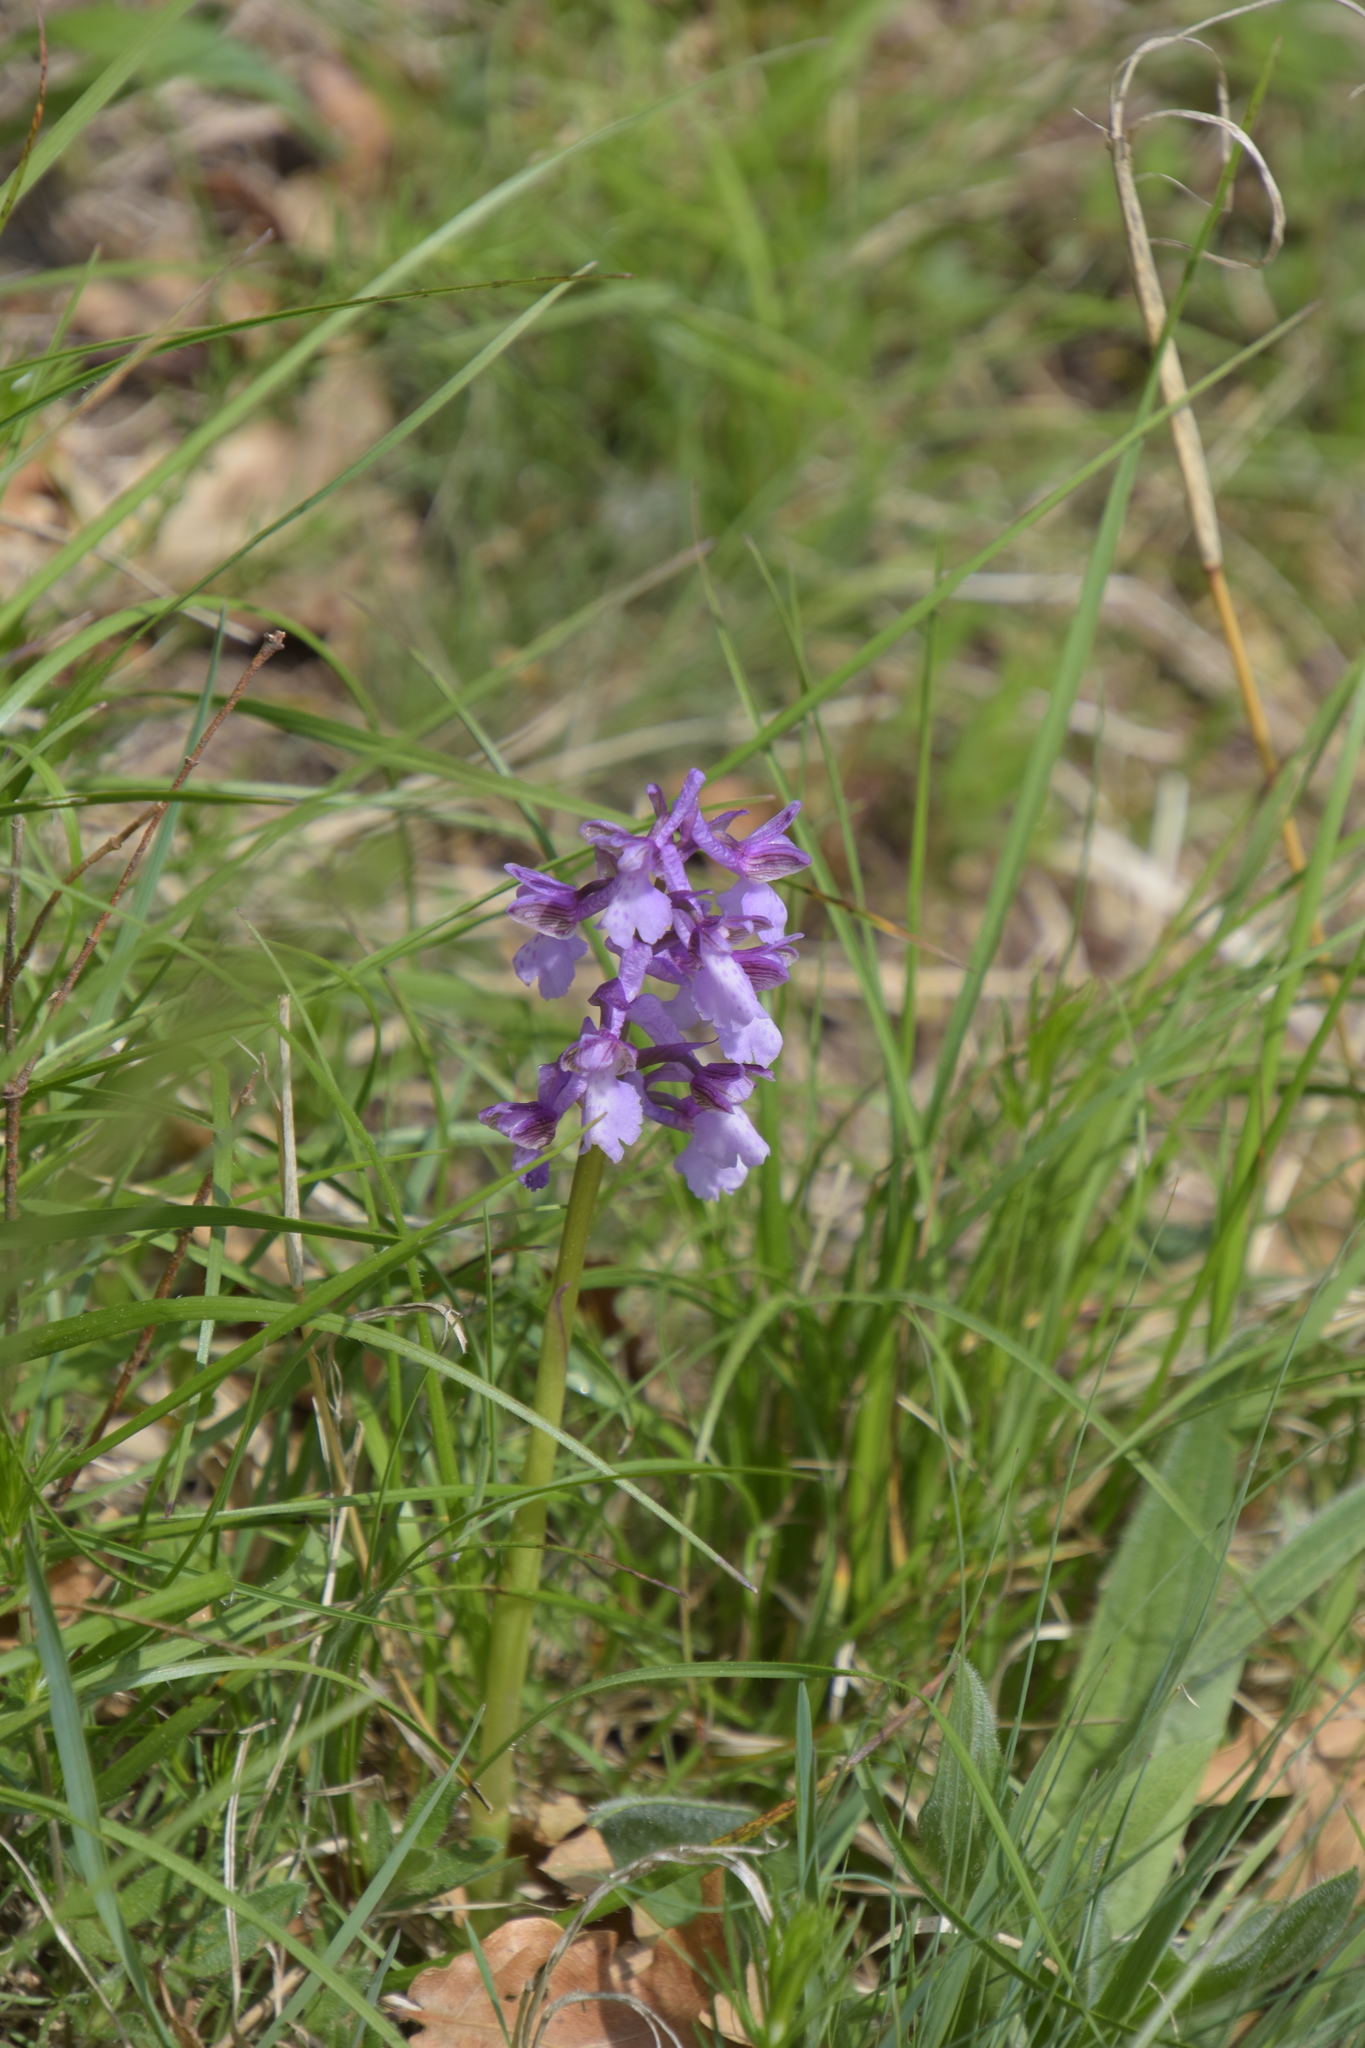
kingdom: Plantae
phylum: Tracheophyta
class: Liliopsida
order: Asparagales
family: Orchidaceae
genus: Anacamptis
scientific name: Anacamptis morio
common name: Green-winged orchid
